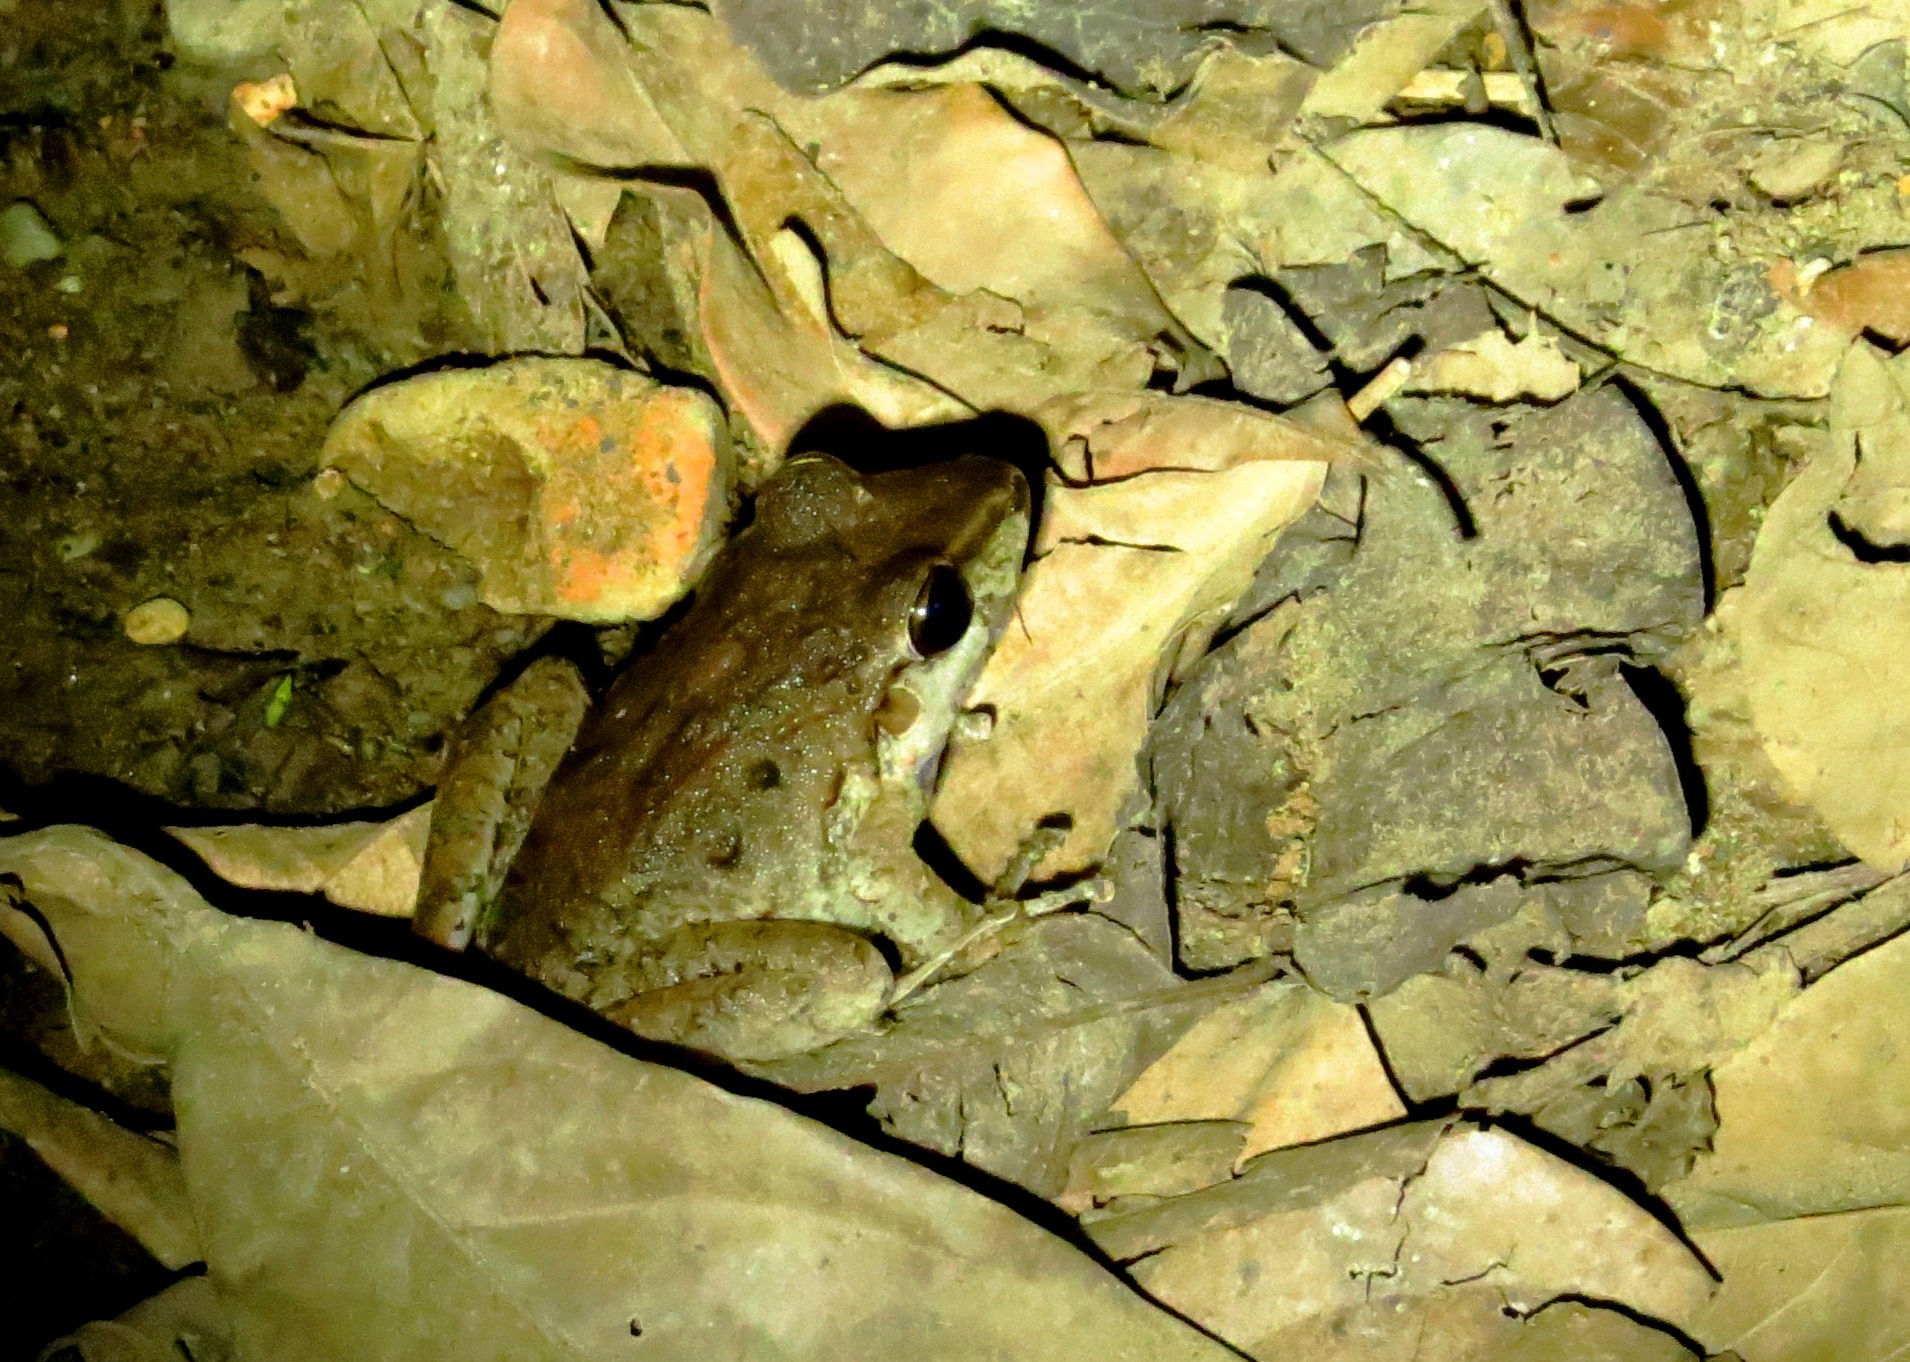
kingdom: Animalia
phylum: Chordata
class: Amphibia
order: Anura
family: Craugastoridae
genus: Craugastor
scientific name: Craugastor fitzingeri
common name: Fitzinger's robber frog
